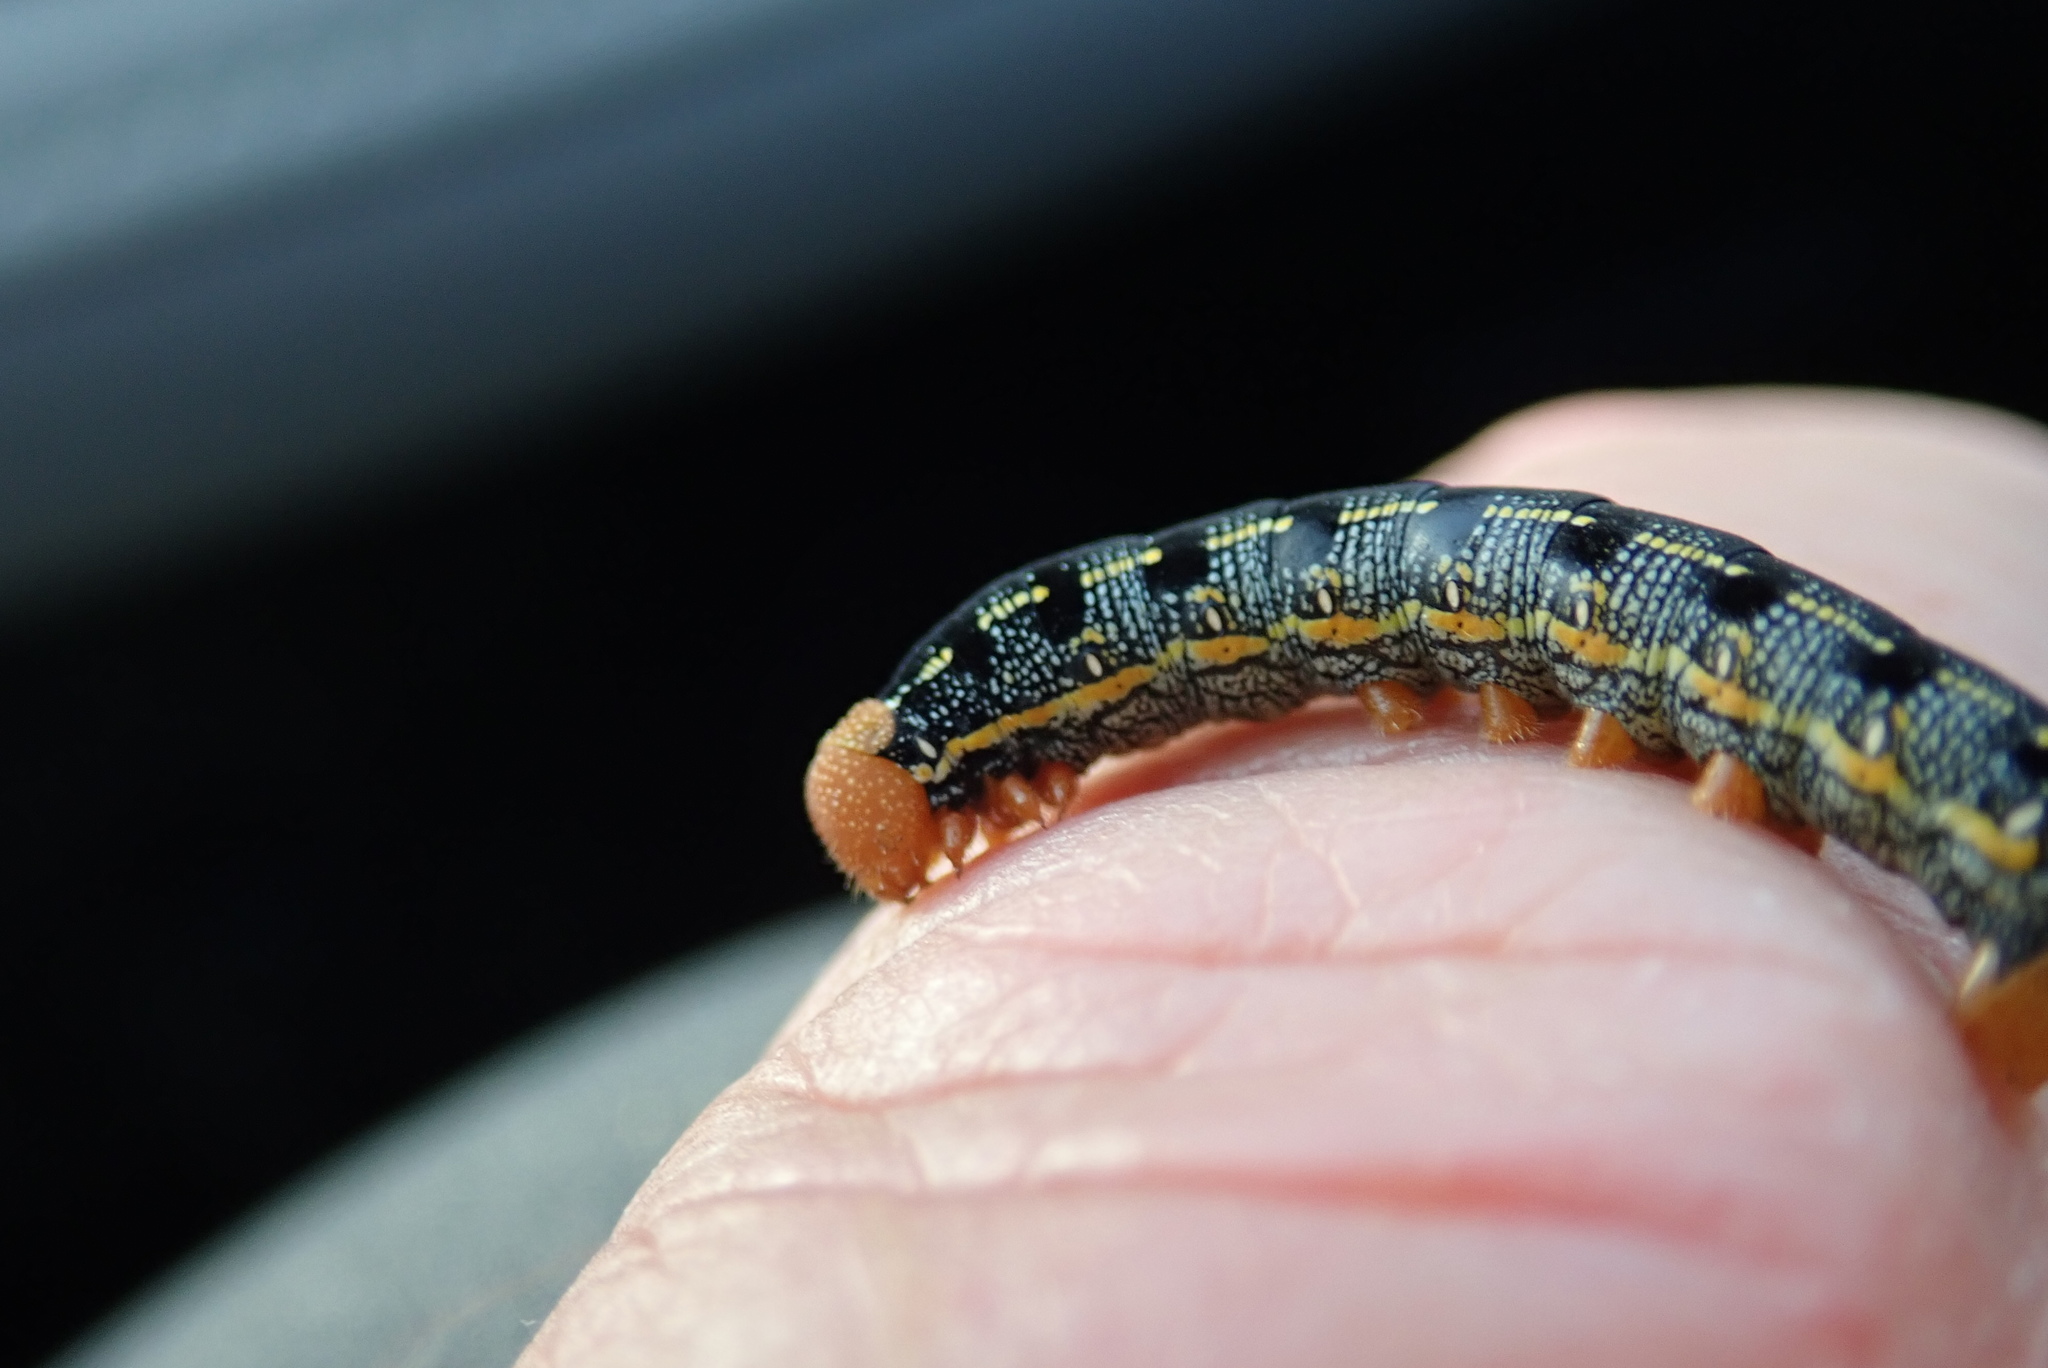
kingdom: Animalia
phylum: Arthropoda
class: Insecta
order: Lepidoptera
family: Sphingidae
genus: Hyles
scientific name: Hyles lineata
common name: White-lined sphinx
